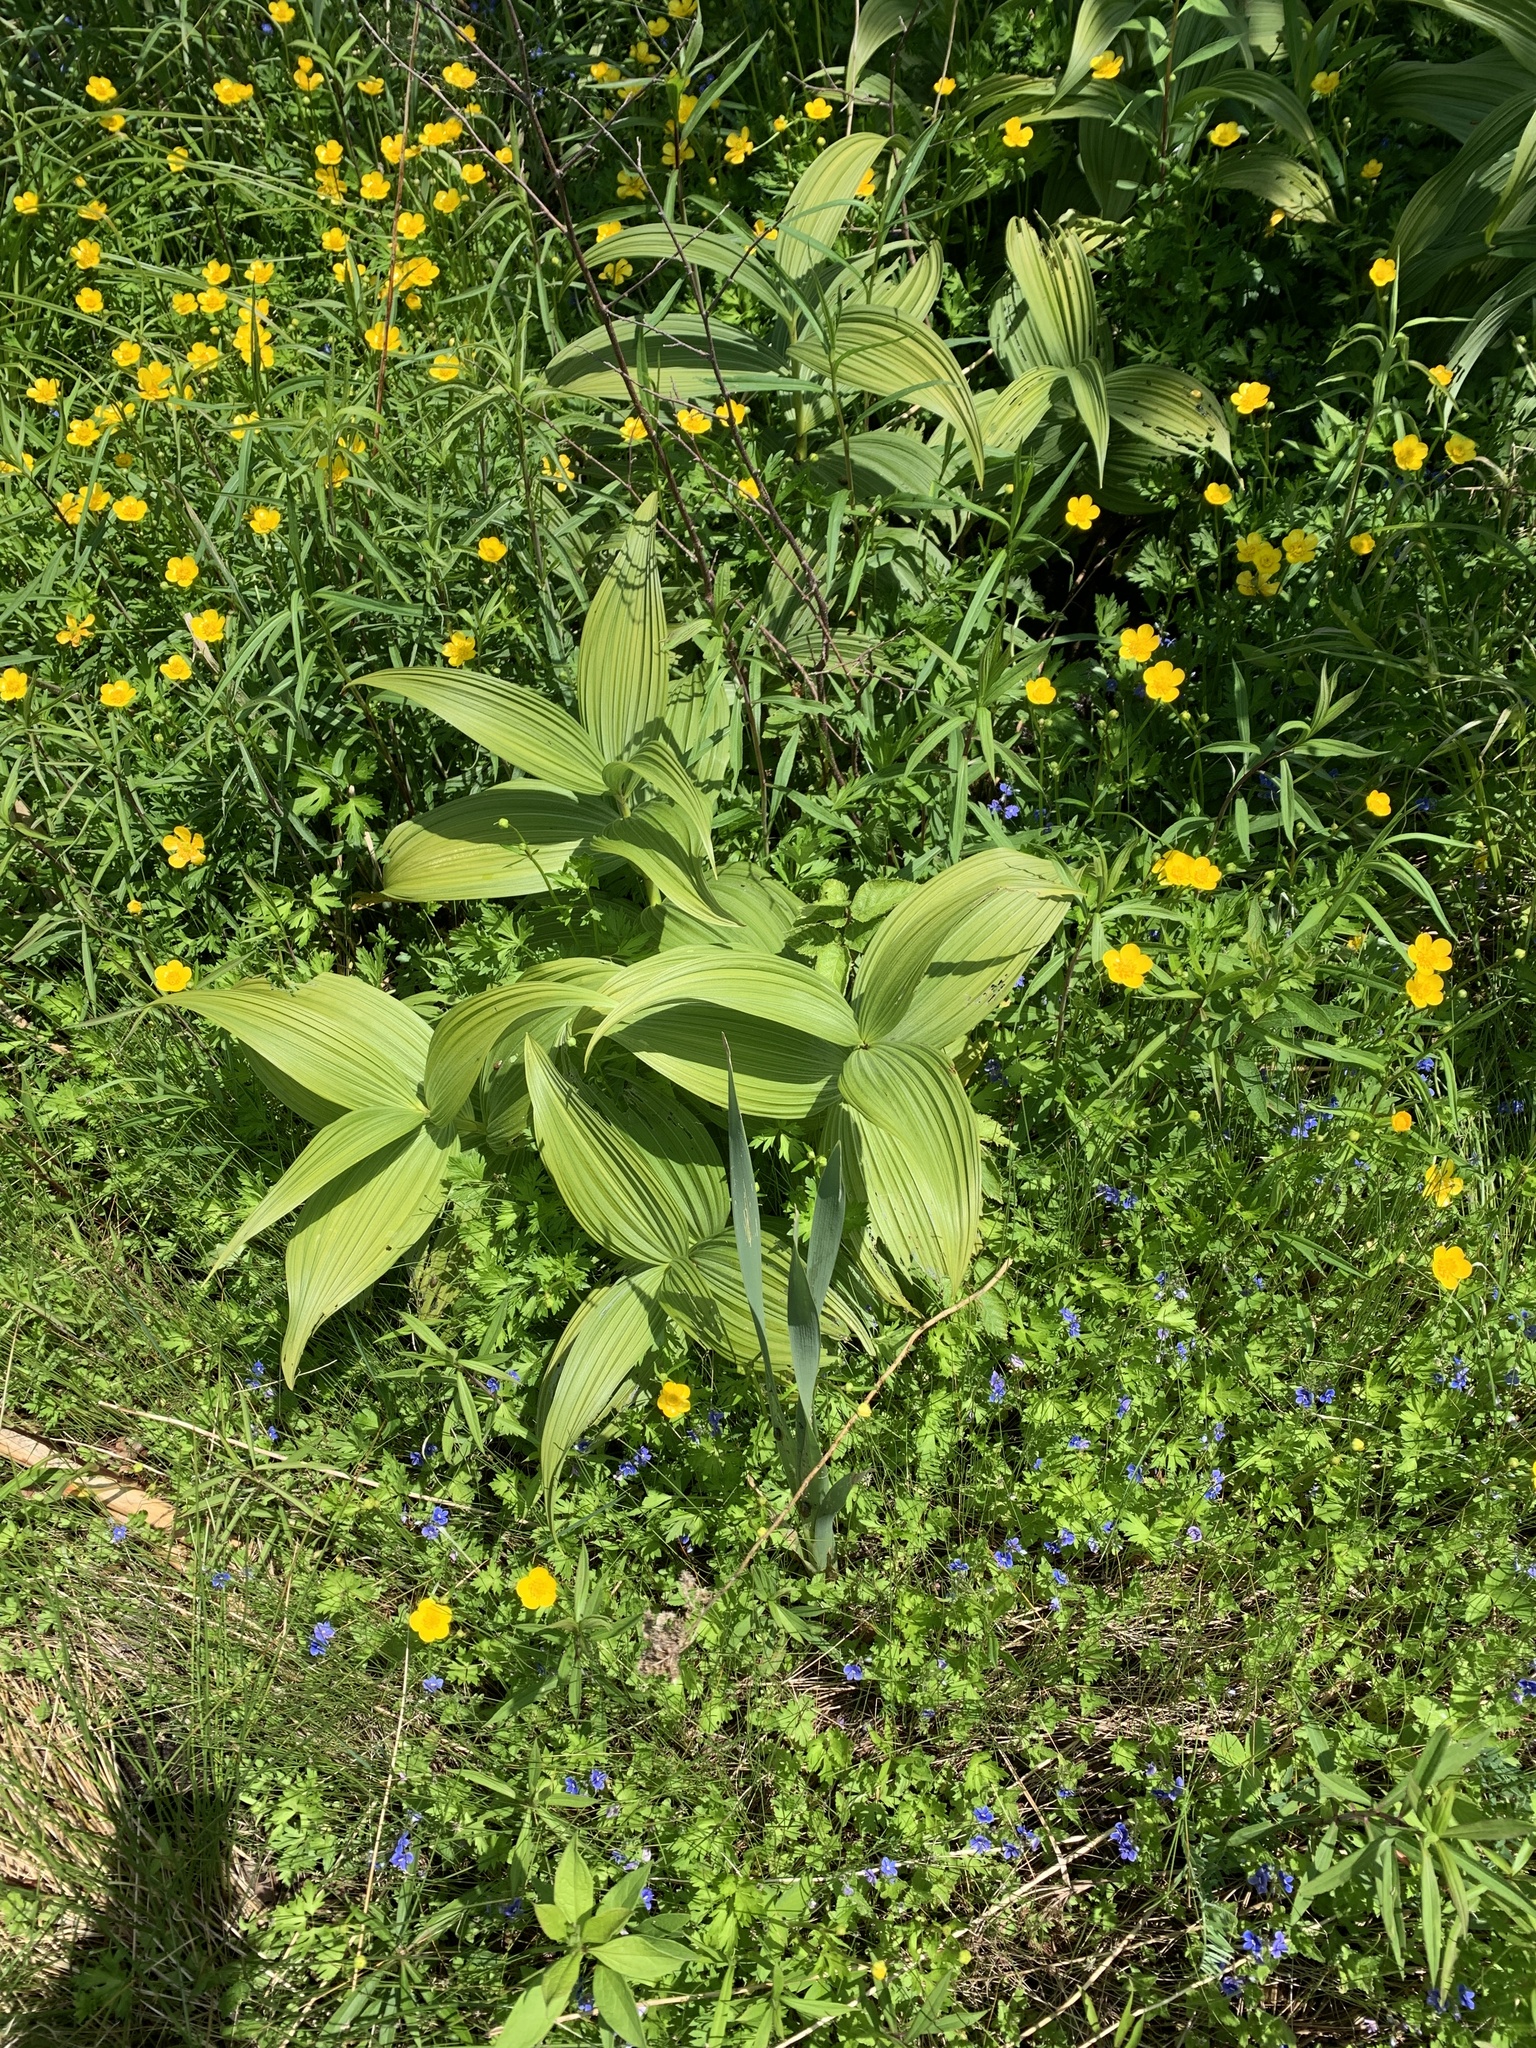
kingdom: Plantae
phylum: Tracheophyta
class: Liliopsida
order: Liliales
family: Melanthiaceae
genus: Veratrum
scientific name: Veratrum viride
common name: American false hellebore
